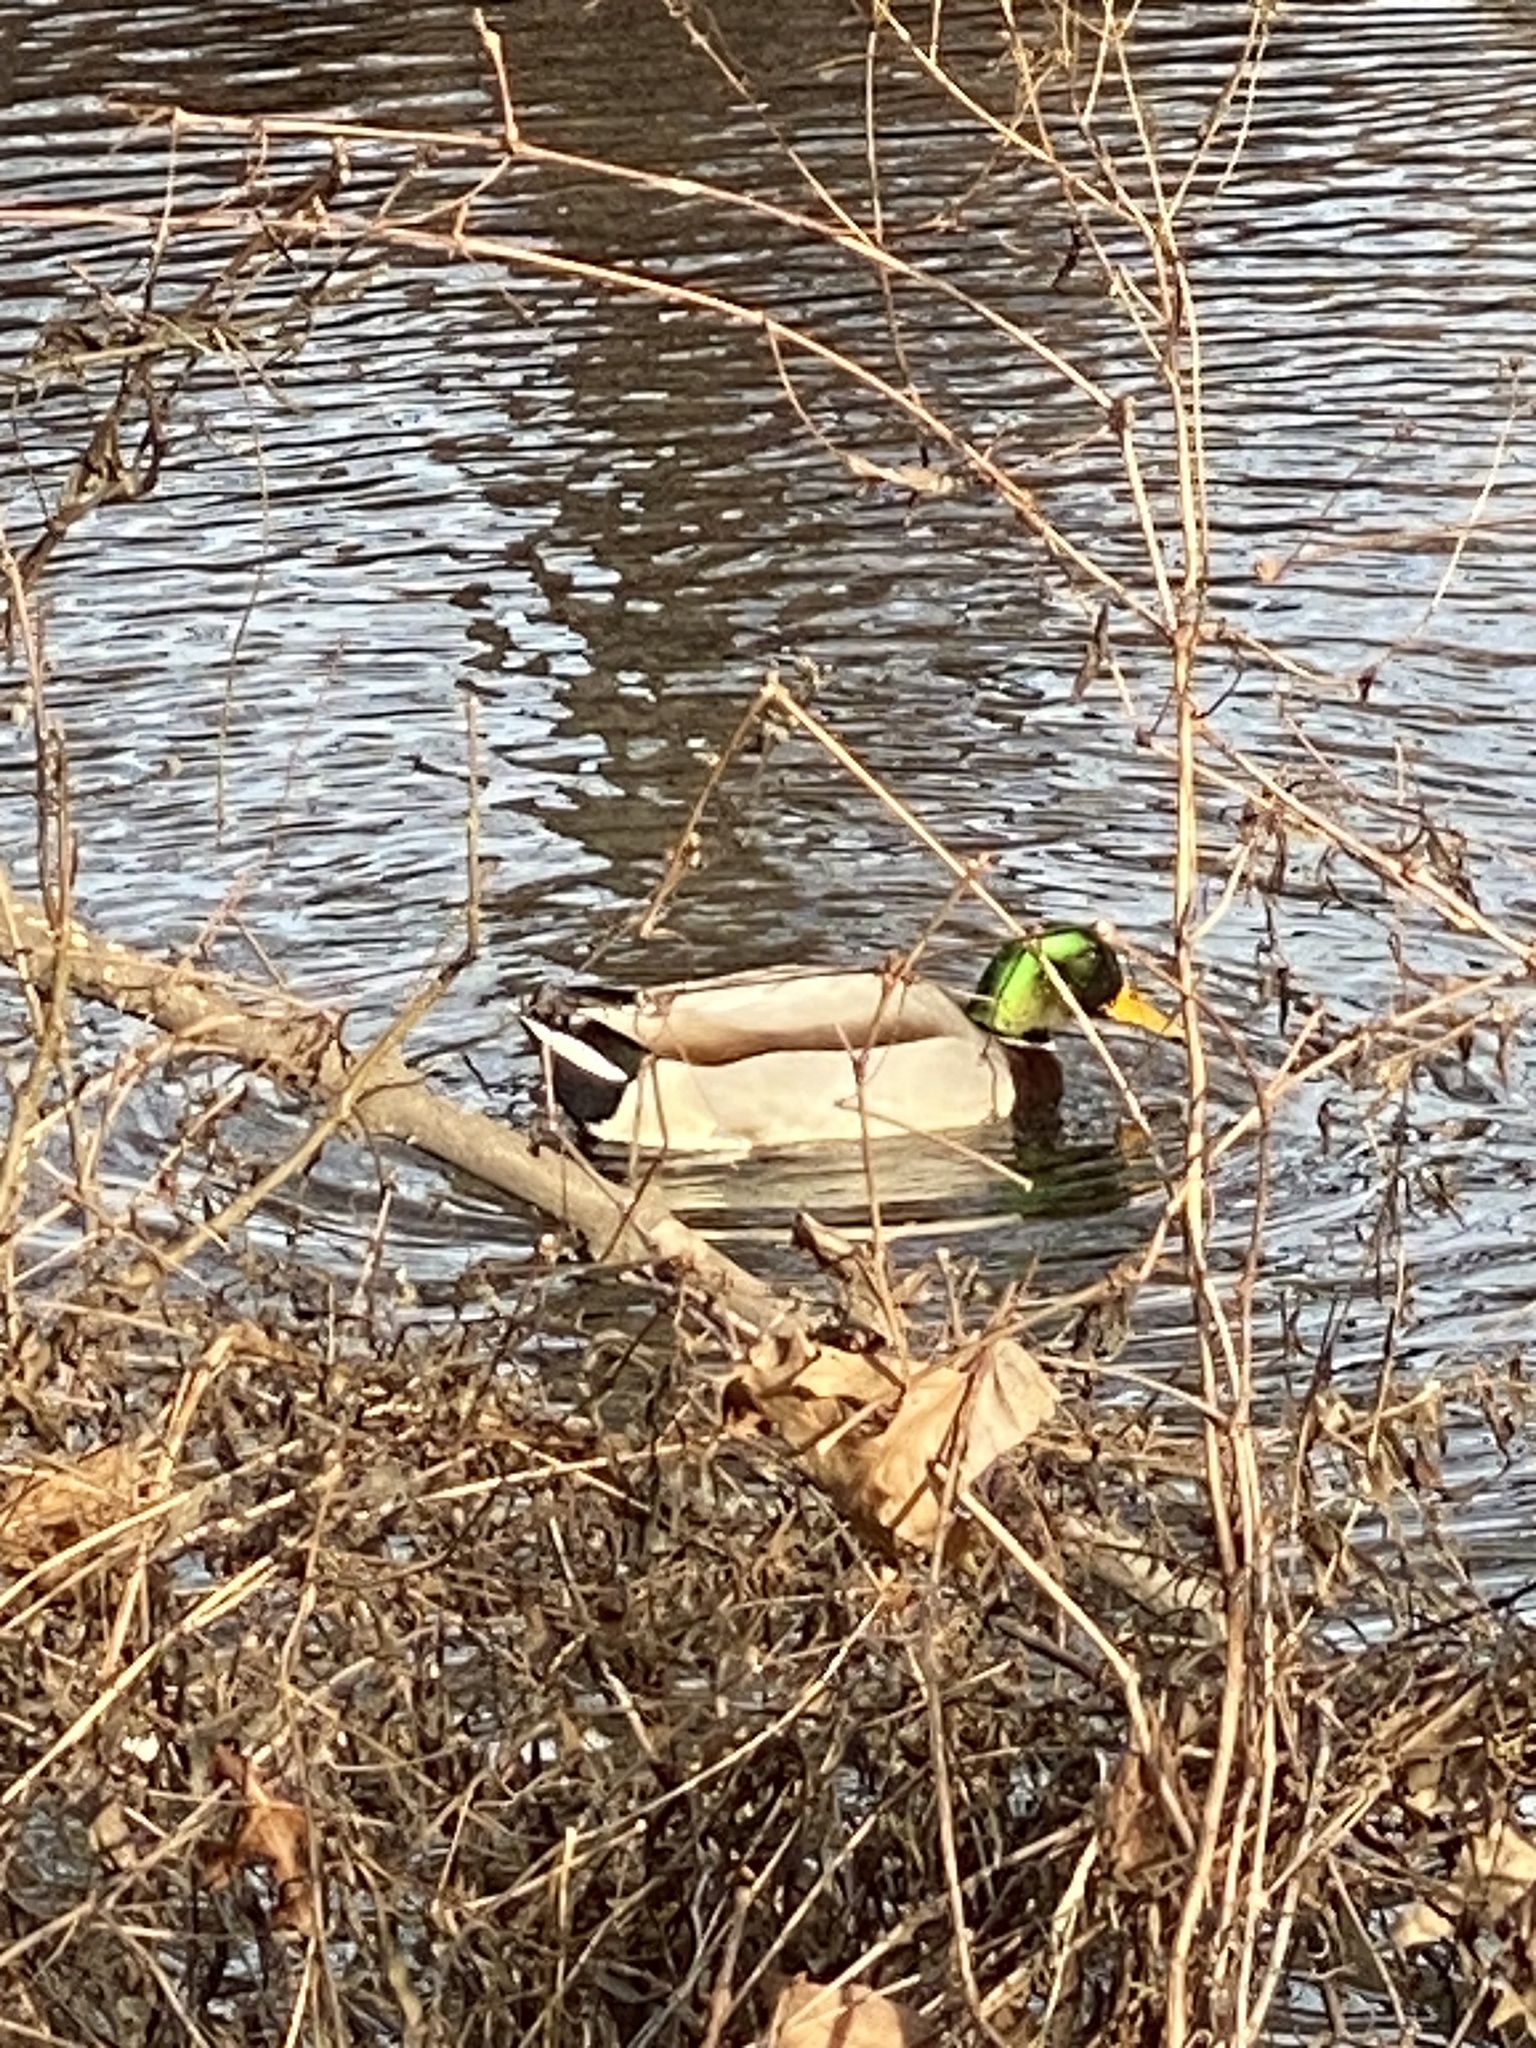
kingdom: Animalia
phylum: Chordata
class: Aves
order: Anseriformes
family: Anatidae
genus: Anas
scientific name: Anas platyrhynchos
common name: Mallard
